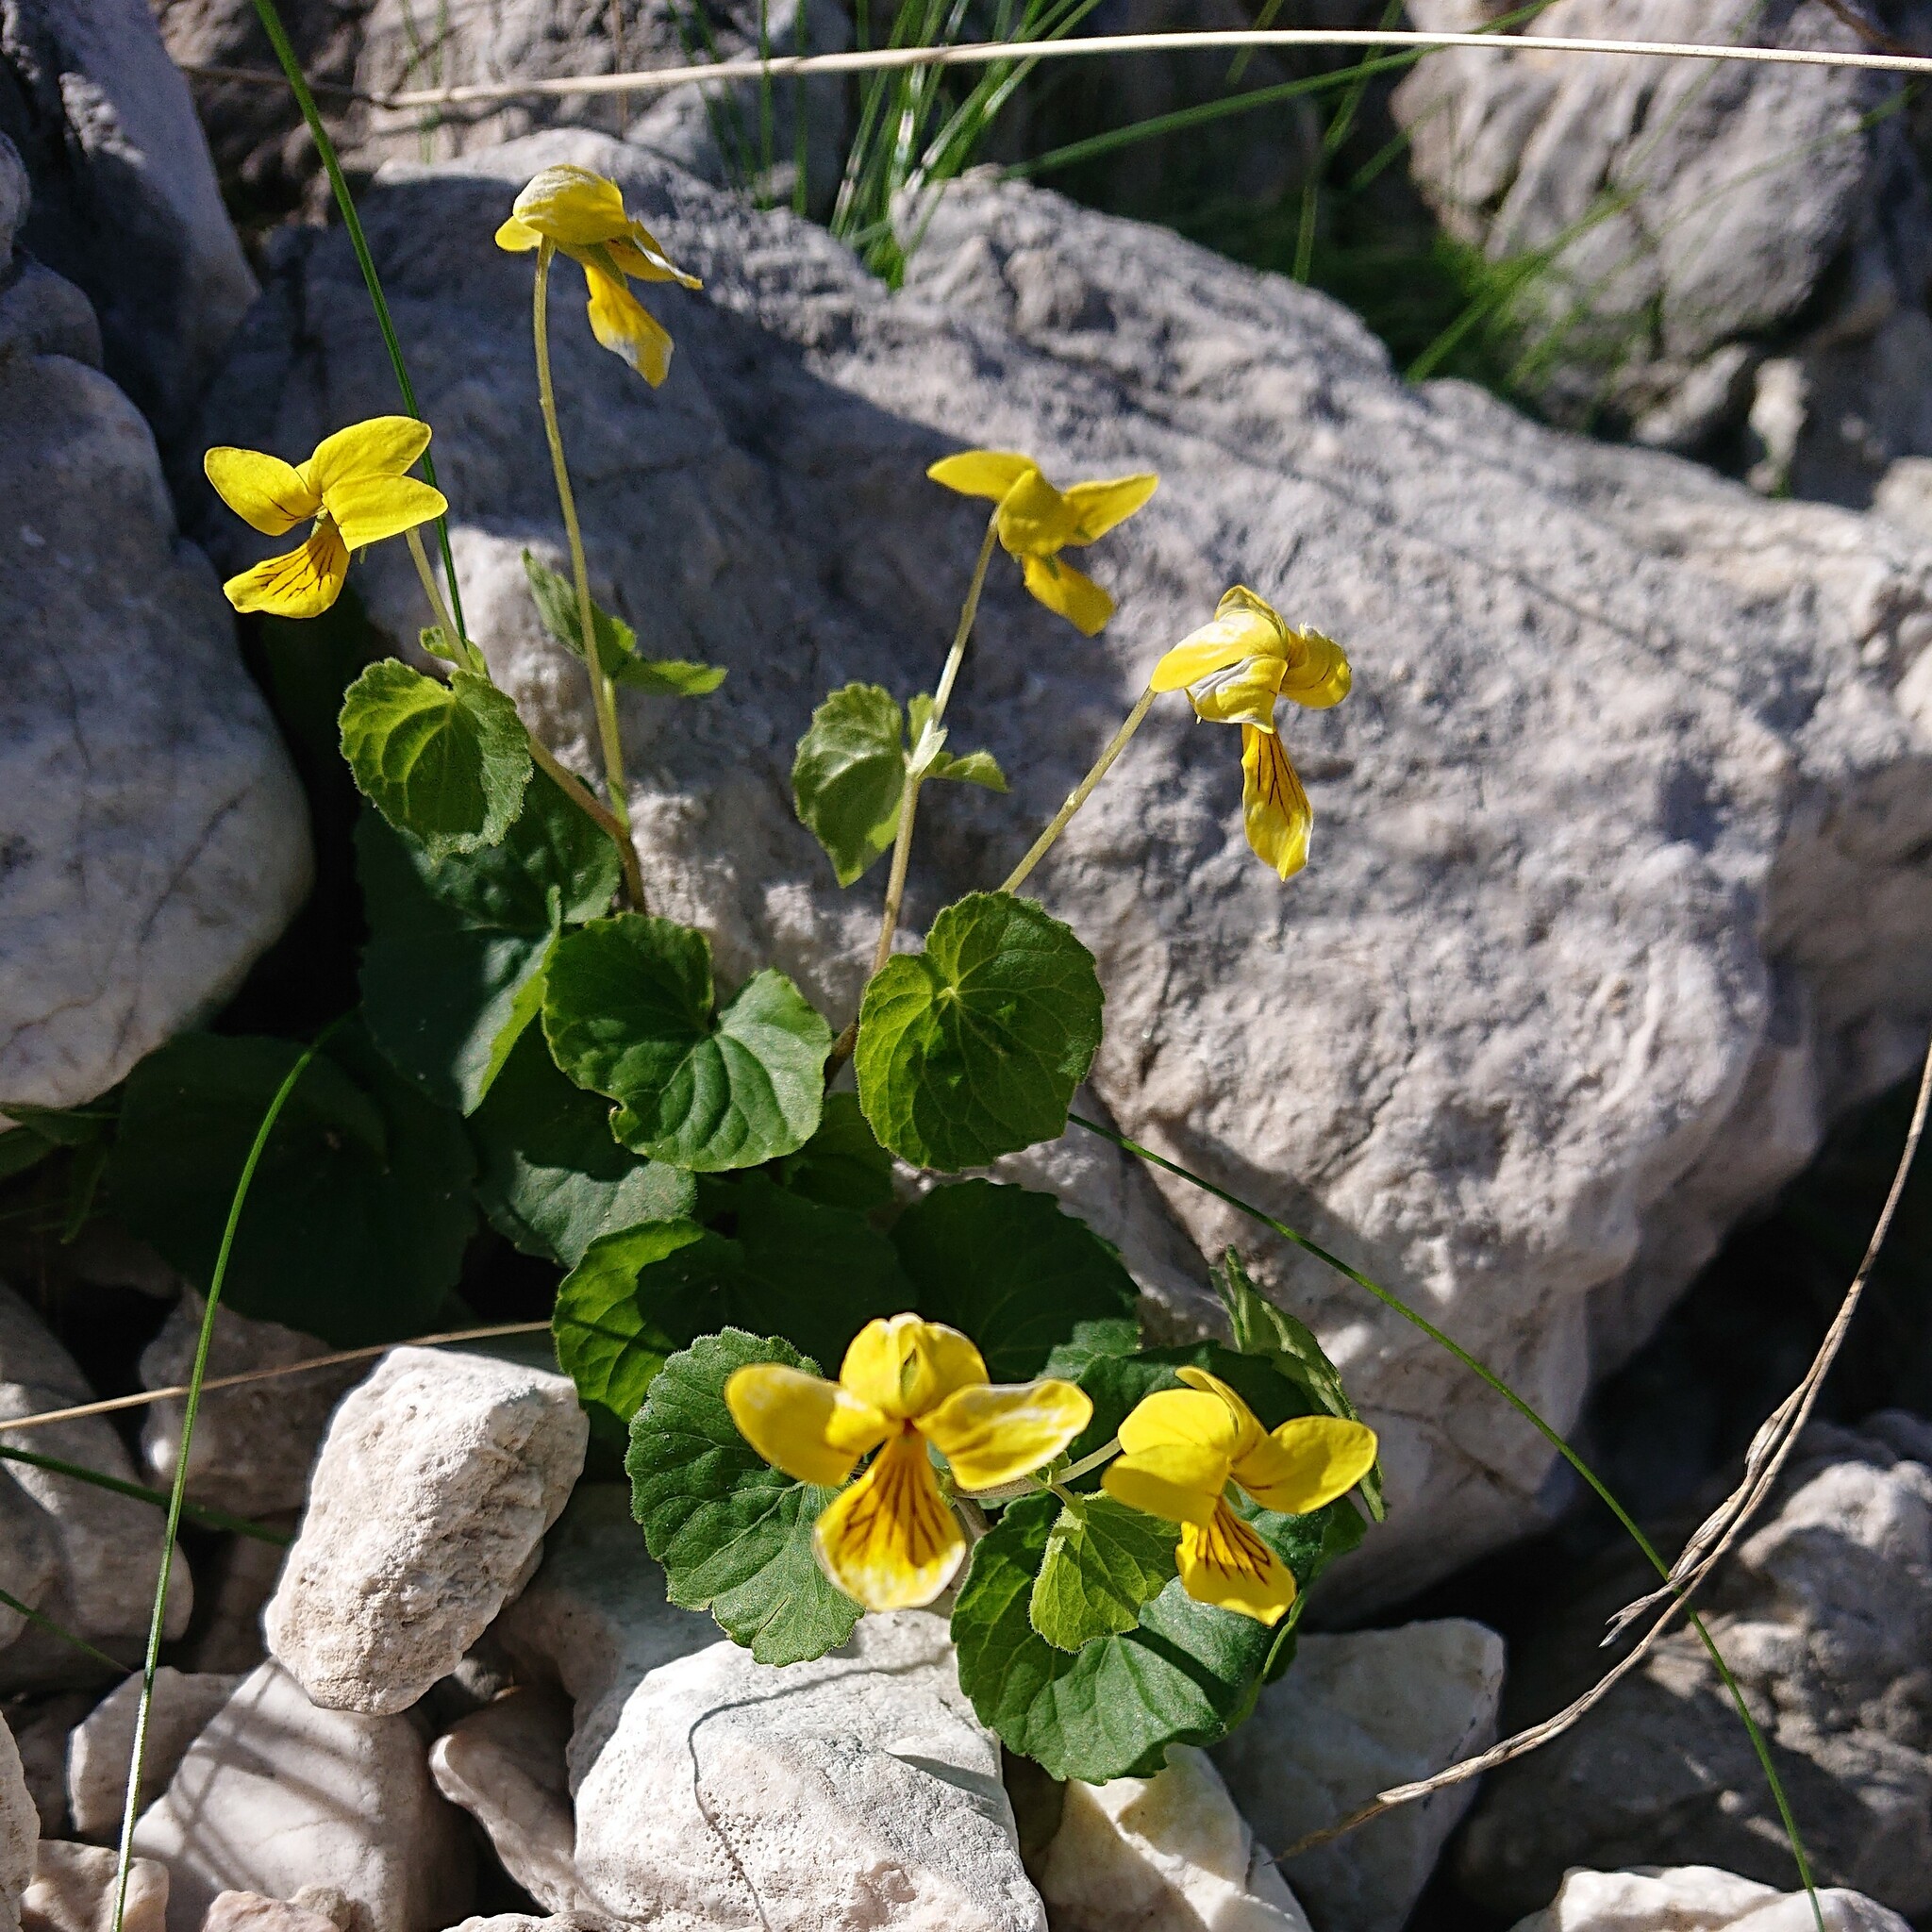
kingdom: Plantae
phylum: Tracheophyta
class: Magnoliopsida
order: Malpighiales
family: Violaceae
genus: Viola
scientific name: Viola biflora
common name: Alpine yellow violet
